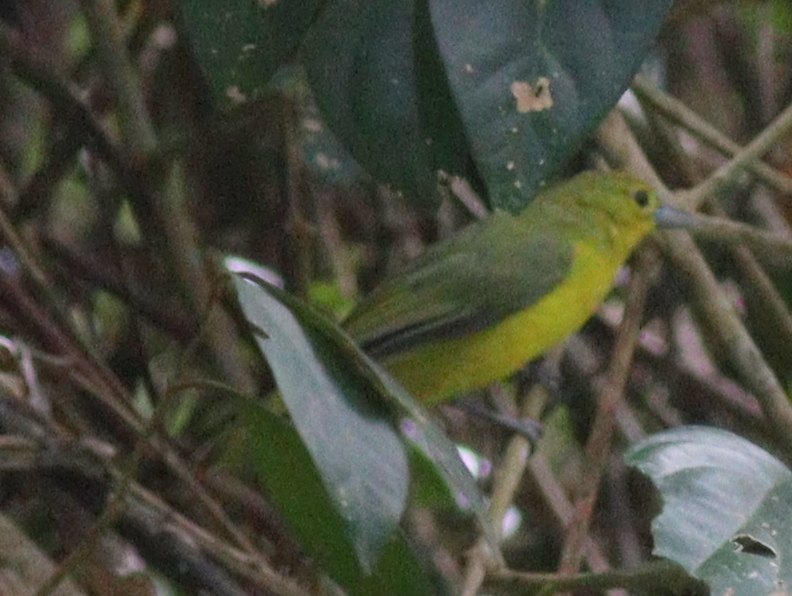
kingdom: Animalia
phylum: Chordata
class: Aves
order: Passeriformes
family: Aegithinidae
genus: Aegithina
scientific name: Aegithina lafresnayei
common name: Great iora
